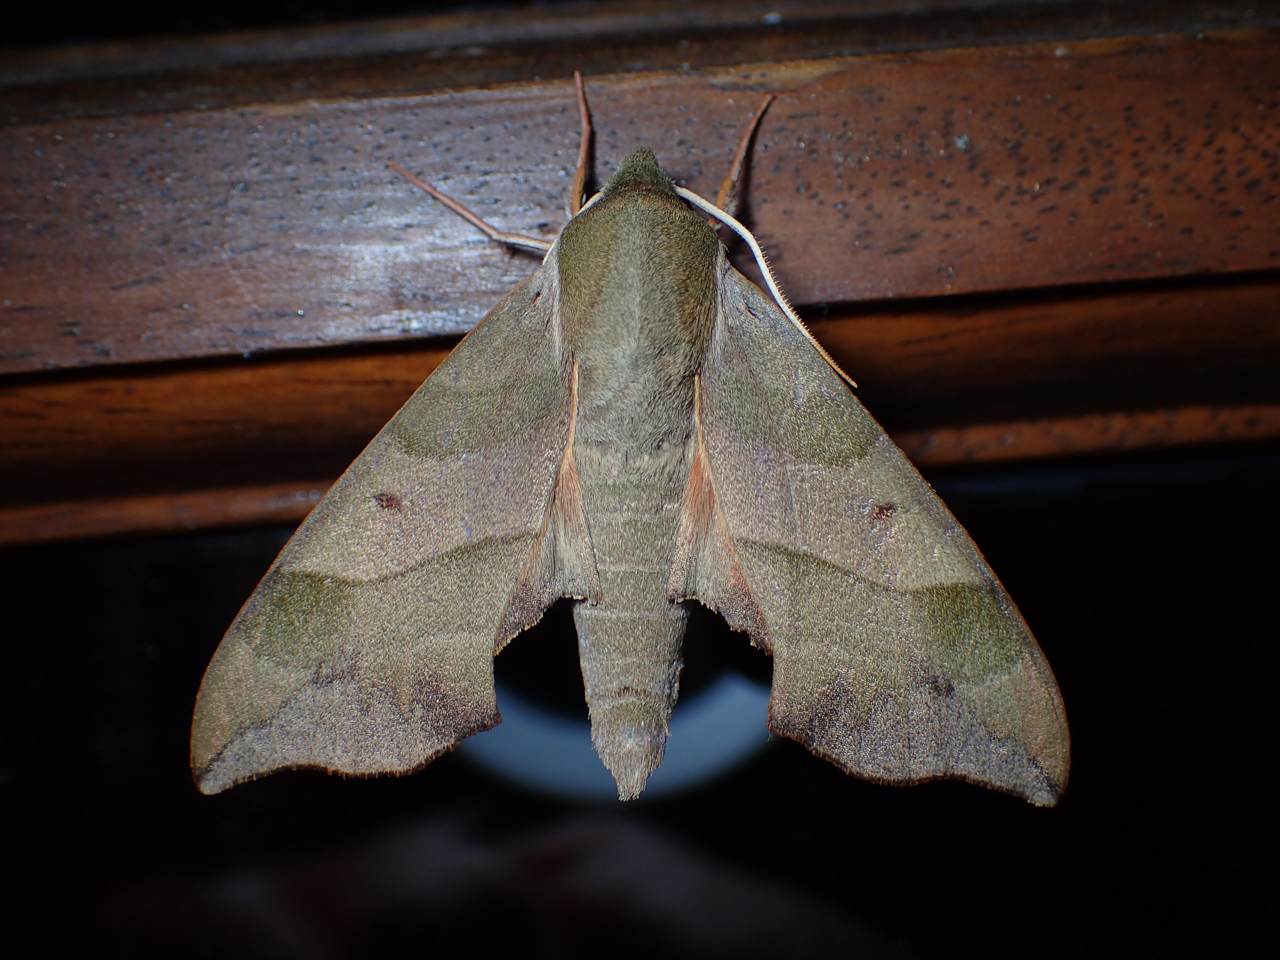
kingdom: Animalia
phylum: Arthropoda
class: Insecta
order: Lepidoptera
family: Sphingidae
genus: Darapsa
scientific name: Darapsa myron
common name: Hog sphinx
